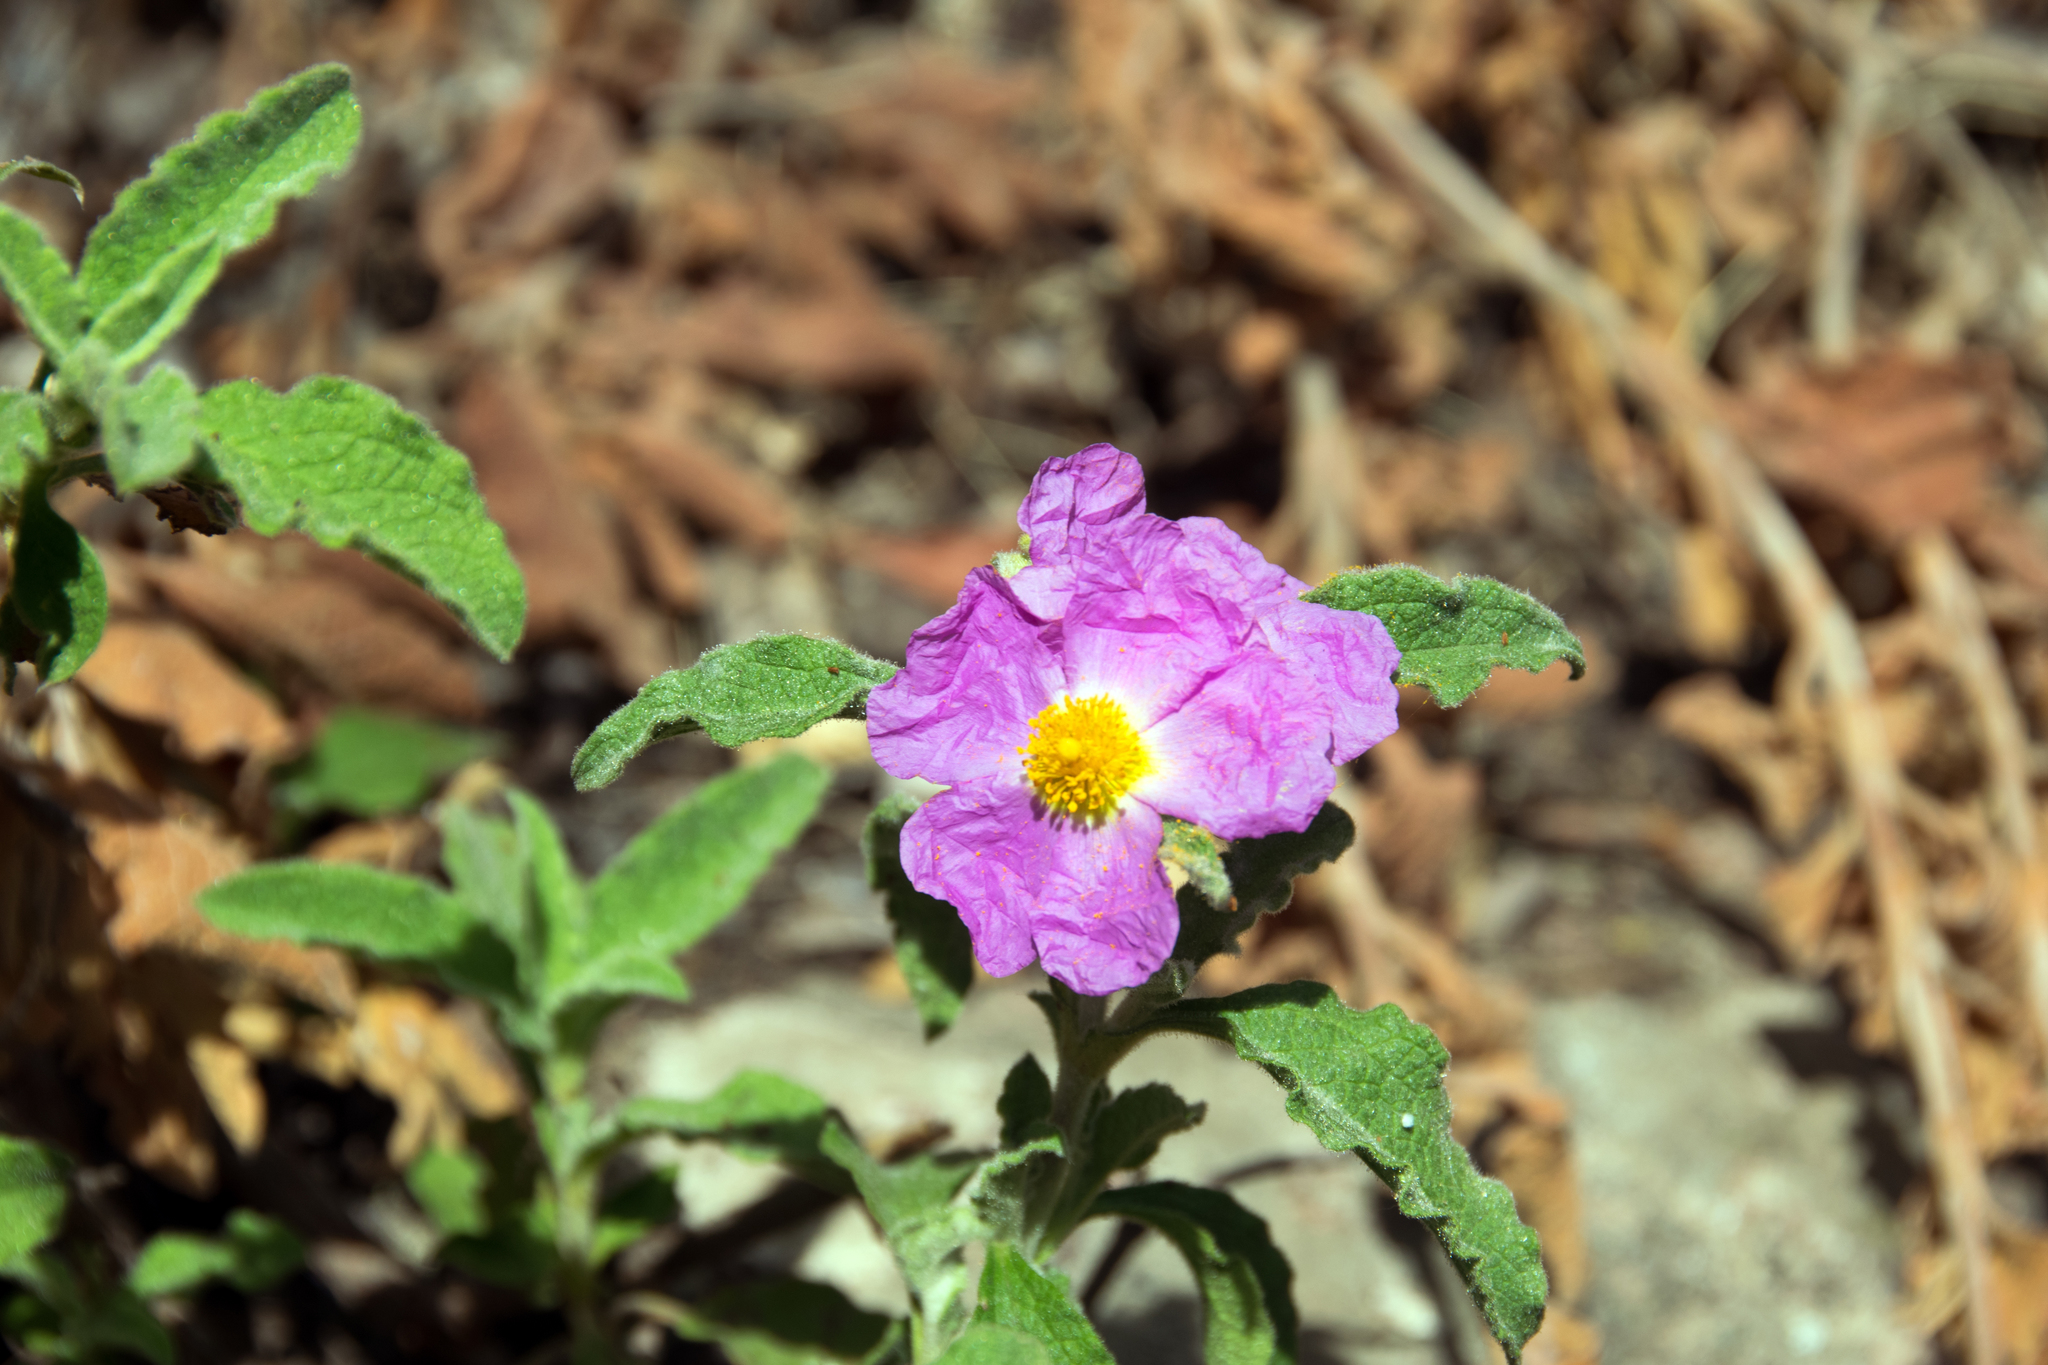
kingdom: Plantae
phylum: Tracheophyta
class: Magnoliopsida
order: Malvales
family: Cistaceae
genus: Cistus
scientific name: Cistus creticus
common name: Cretan rockrose
